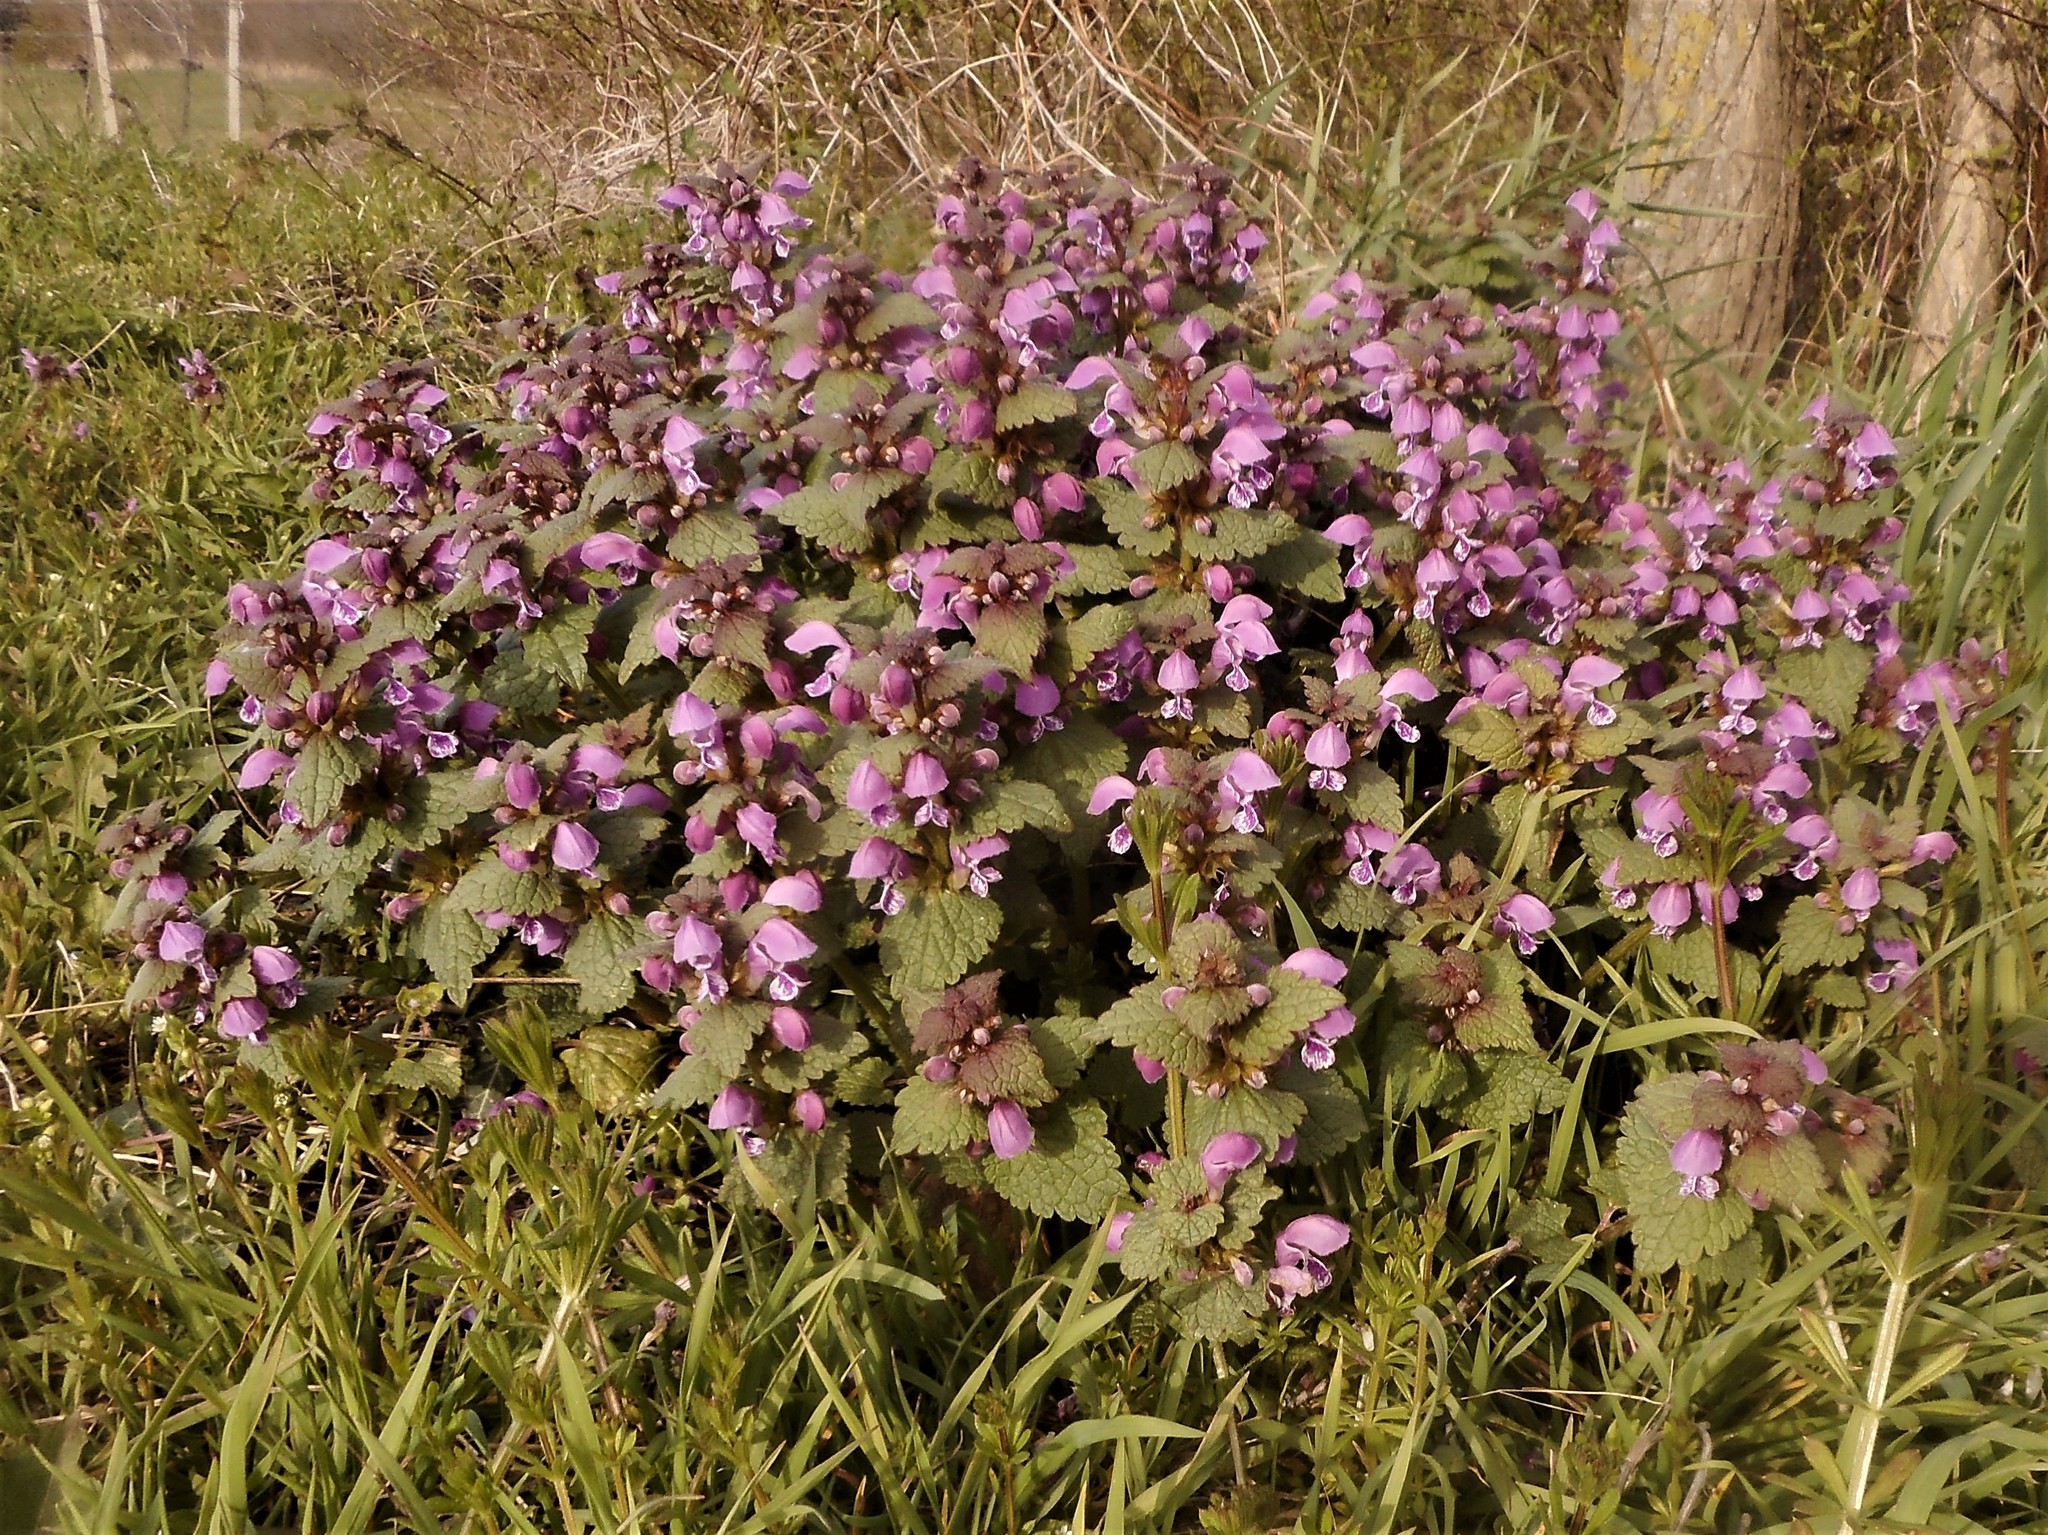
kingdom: Plantae
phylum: Tracheophyta
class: Magnoliopsida
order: Lamiales
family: Lamiaceae
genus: Lamium
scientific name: Lamium maculatum
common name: Spotted dead-nettle
